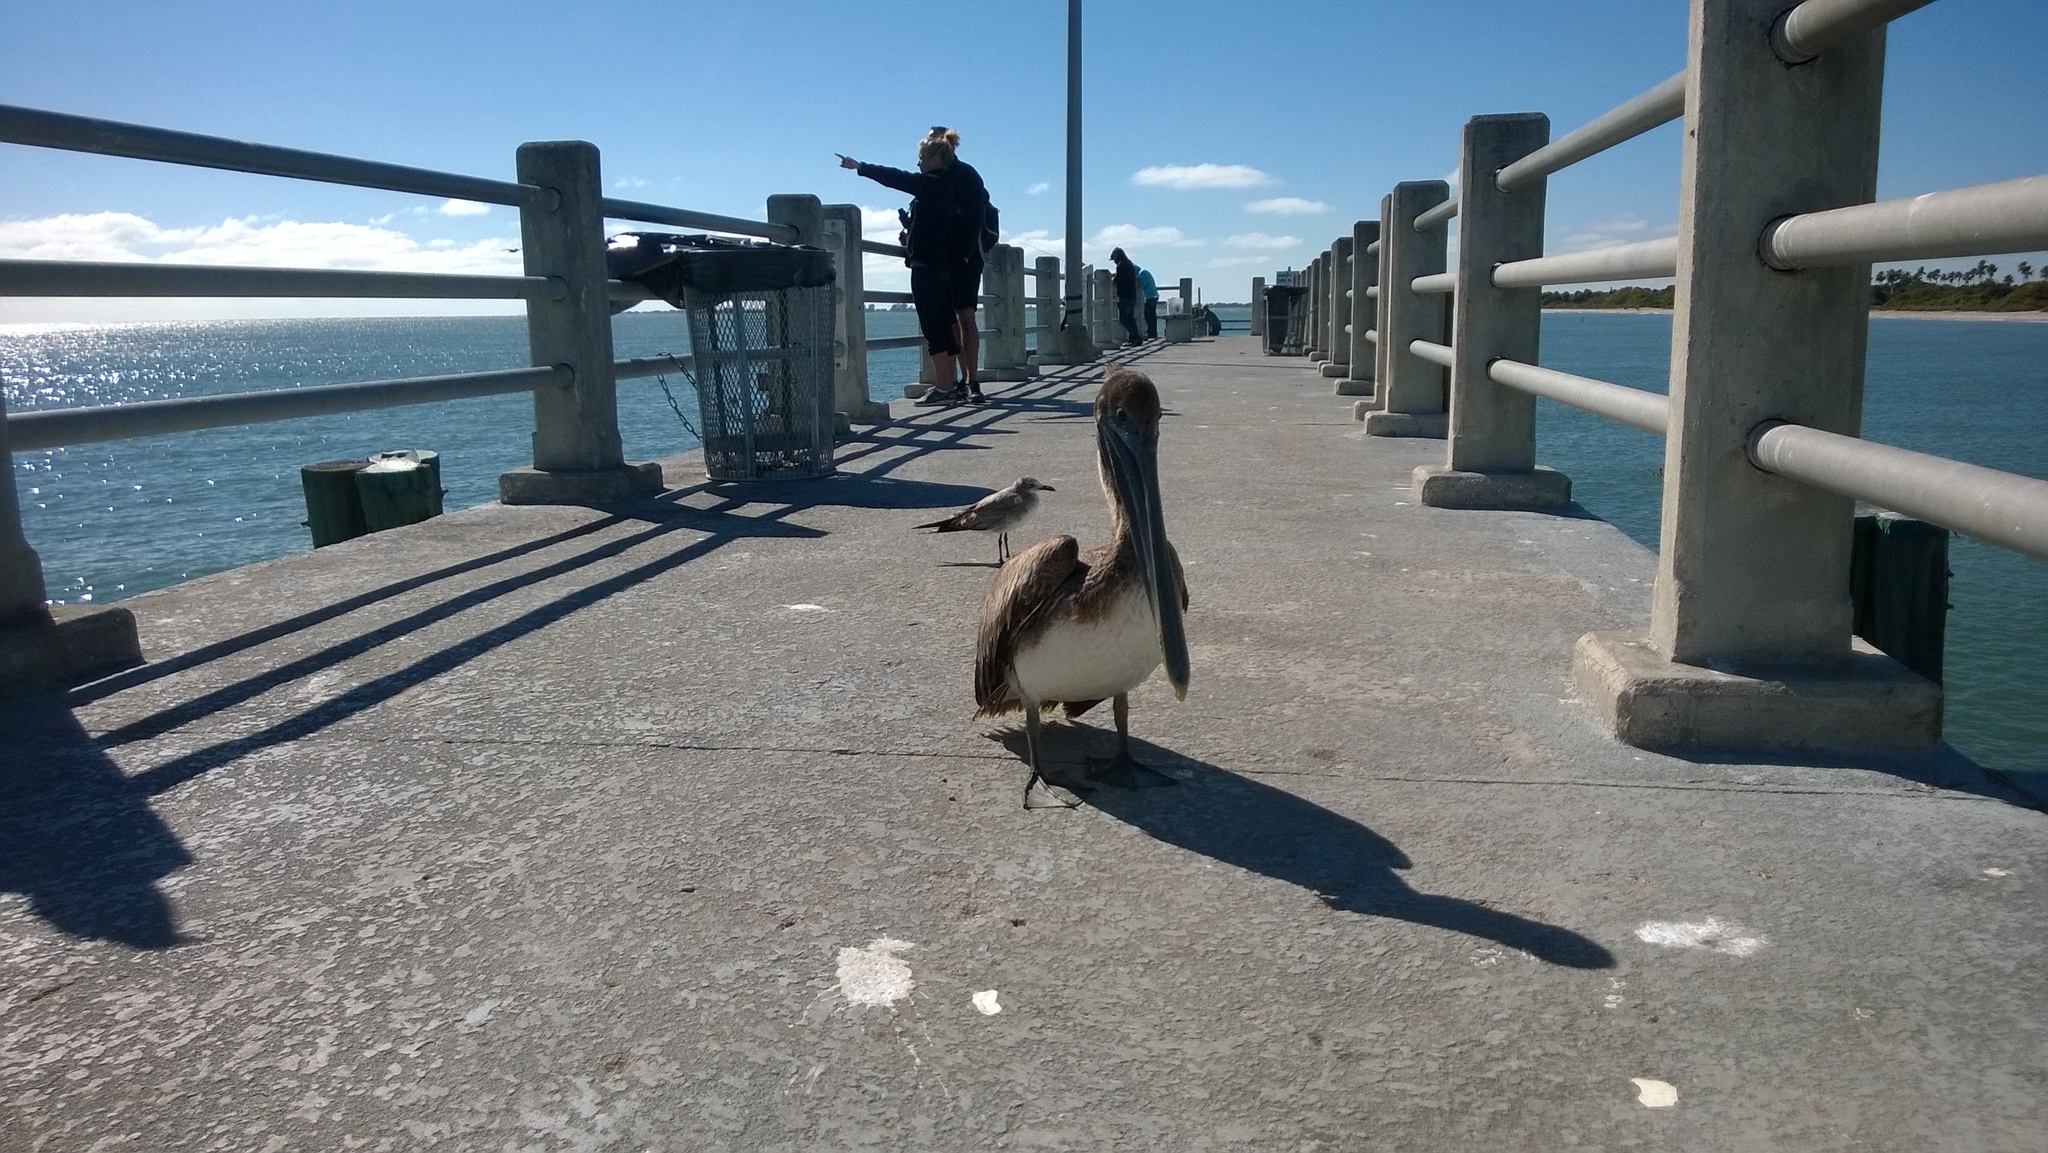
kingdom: Animalia
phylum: Chordata
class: Aves
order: Pelecaniformes
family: Pelecanidae
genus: Pelecanus
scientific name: Pelecanus occidentalis
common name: Brown pelican
